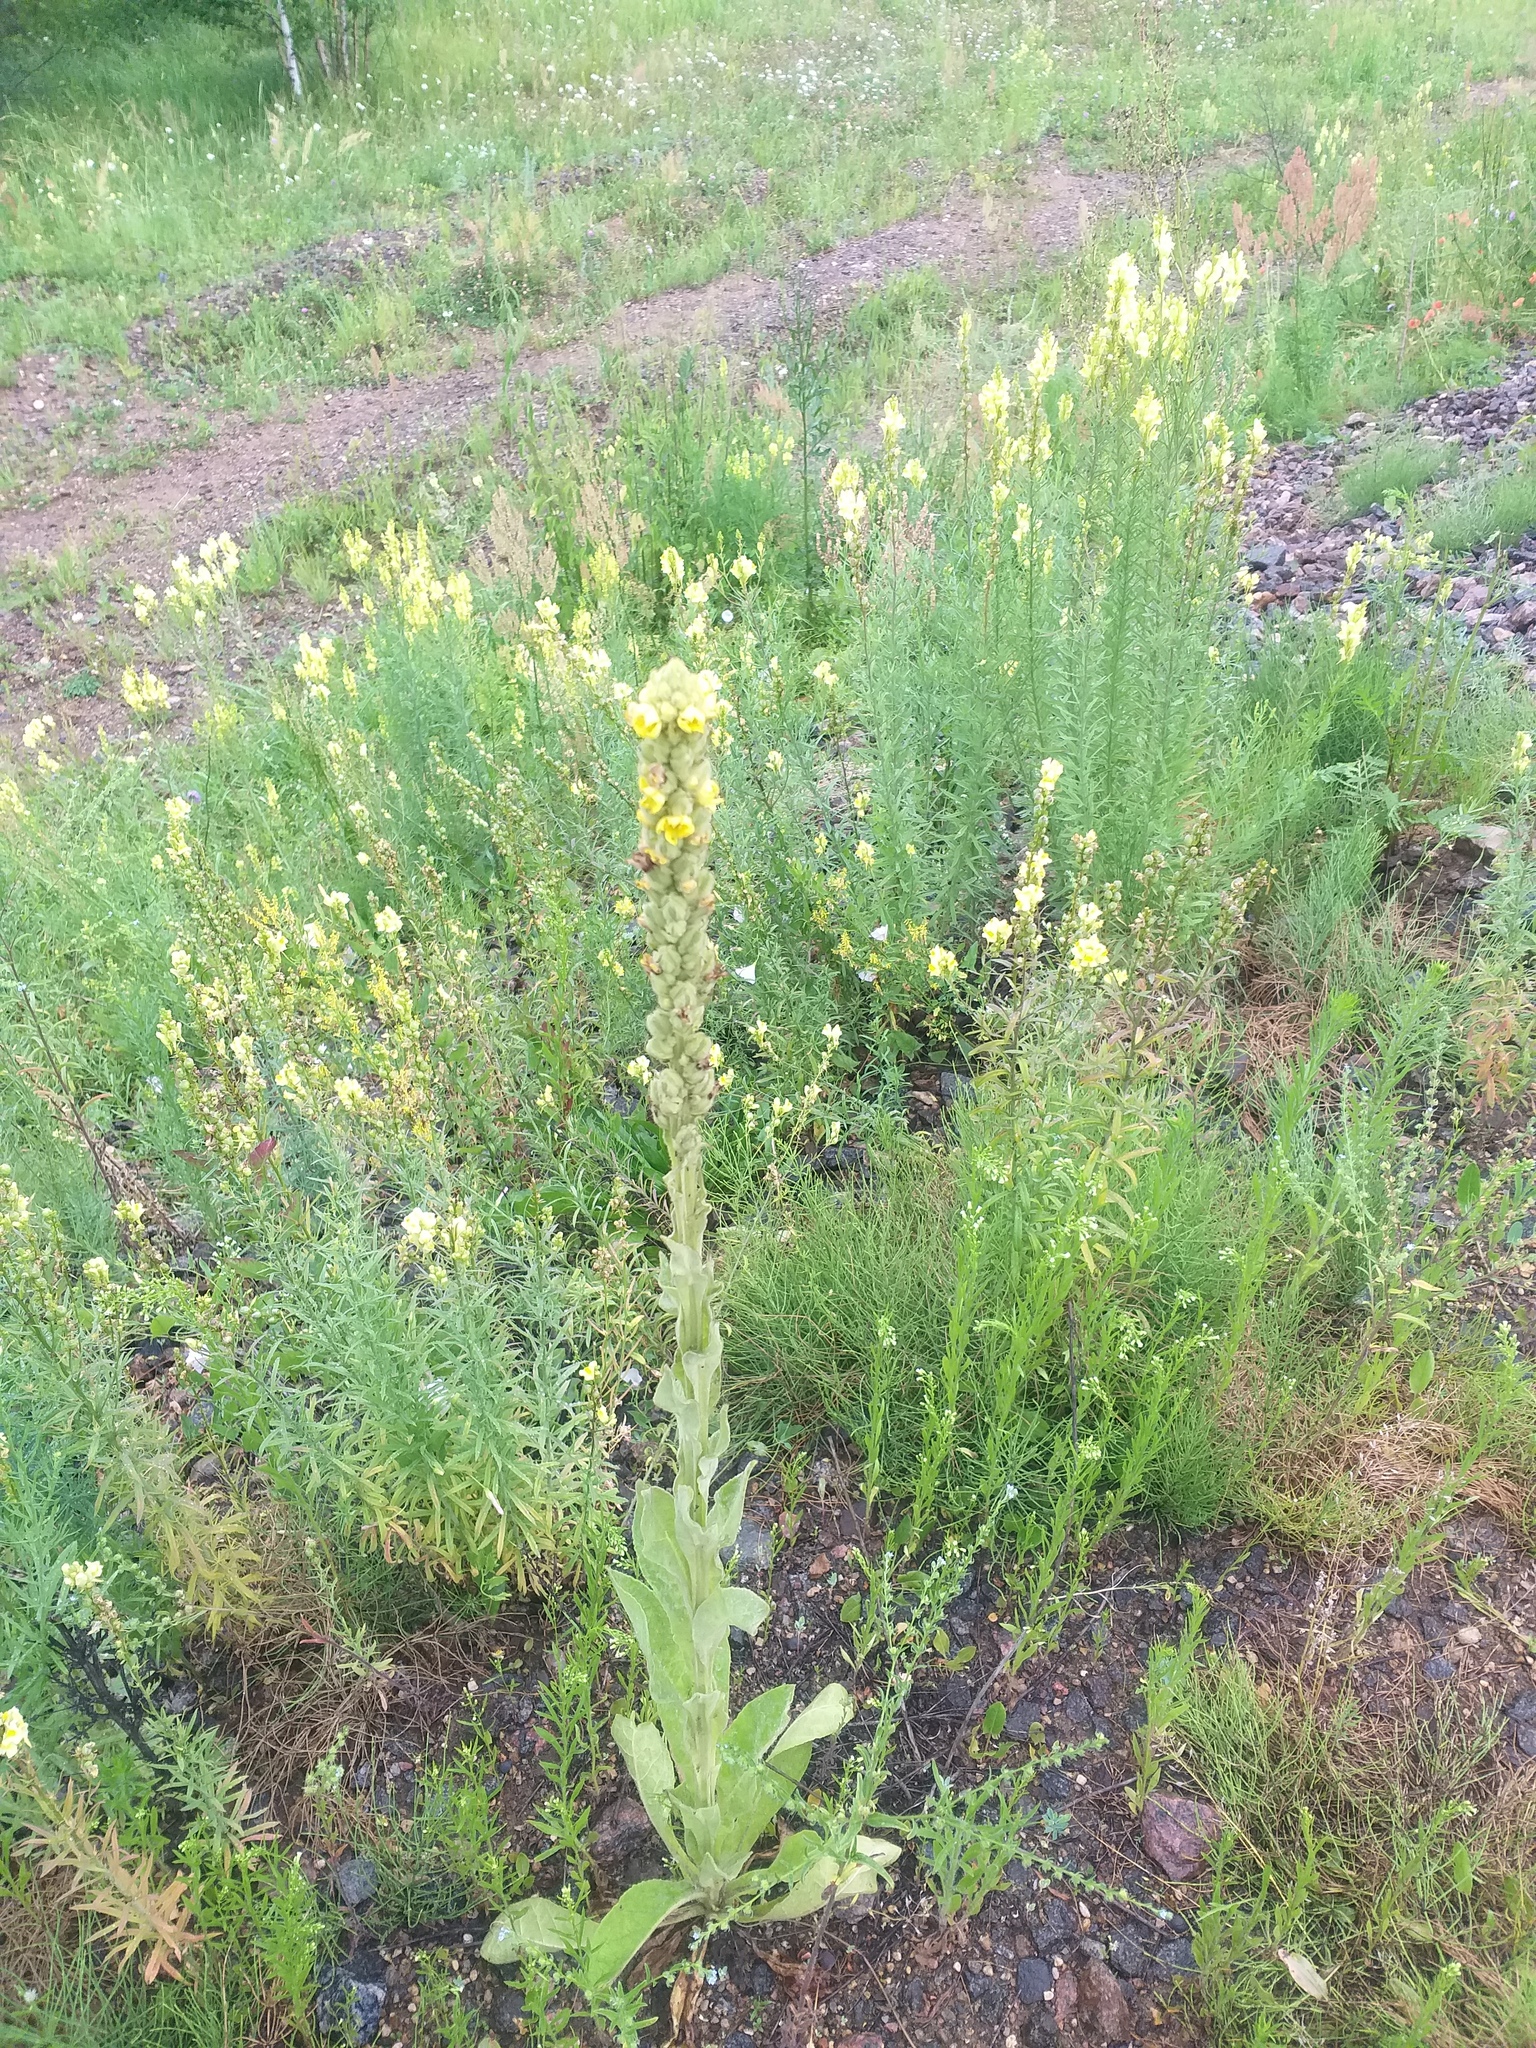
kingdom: Plantae
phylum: Tracheophyta
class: Magnoliopsida
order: Lamiales
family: Scrophulariaceae
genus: Verbascum
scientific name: Verbascum thapsus
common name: Common mullein
